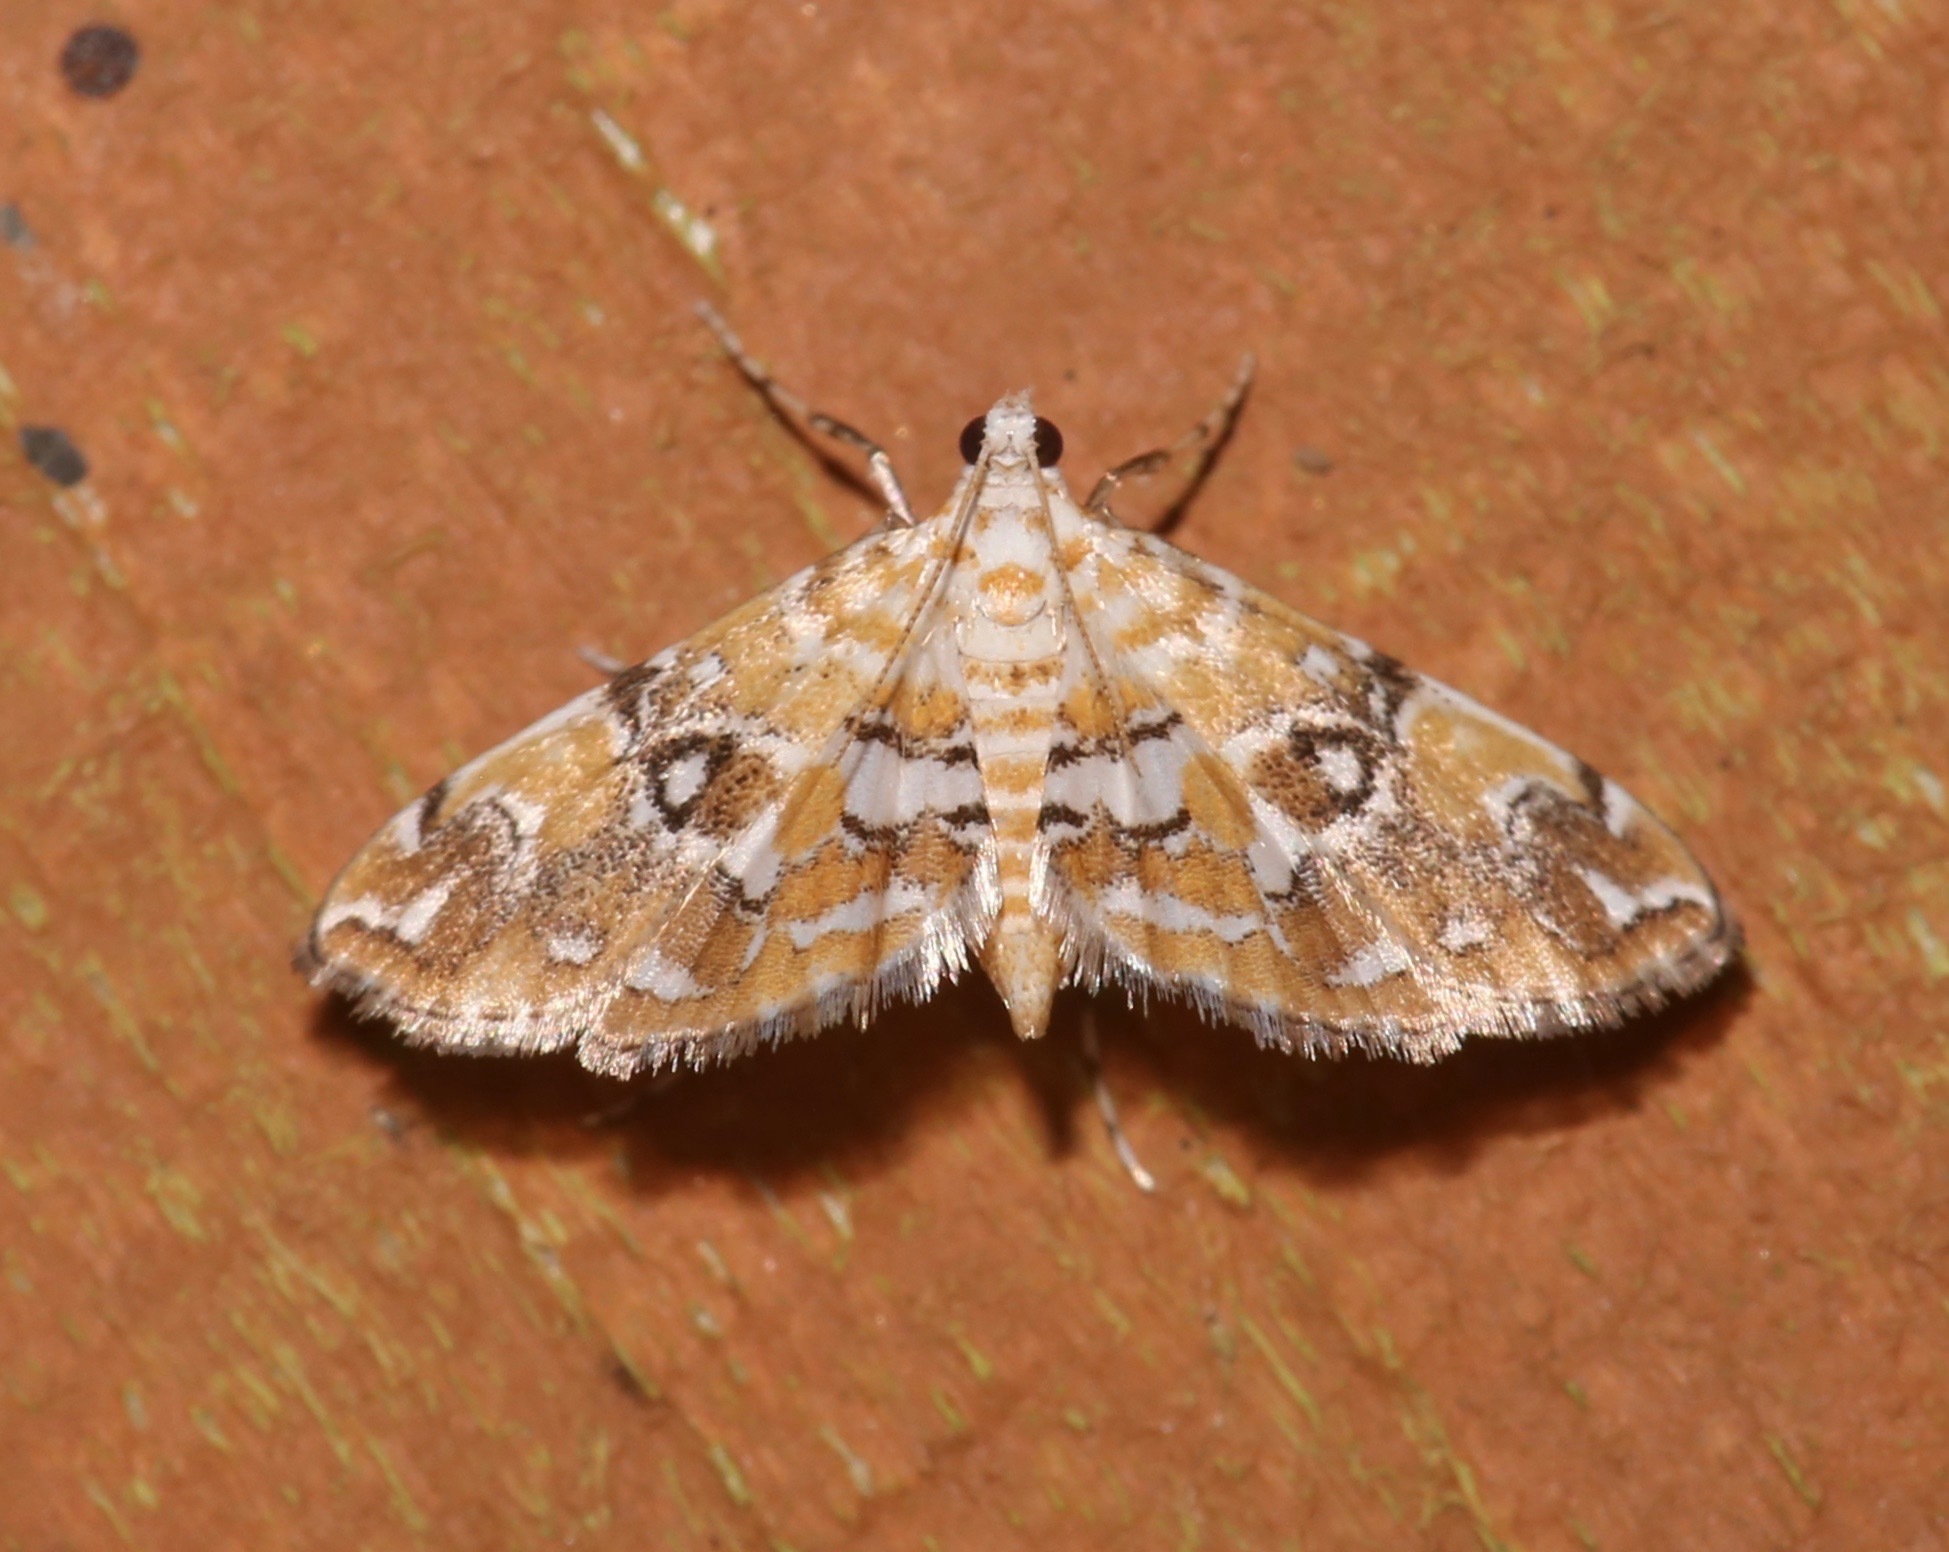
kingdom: Animalia
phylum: Arthropoda
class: Insecta
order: Lepidoptera
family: Crambidae
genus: Elophila
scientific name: Elophila faulalis
